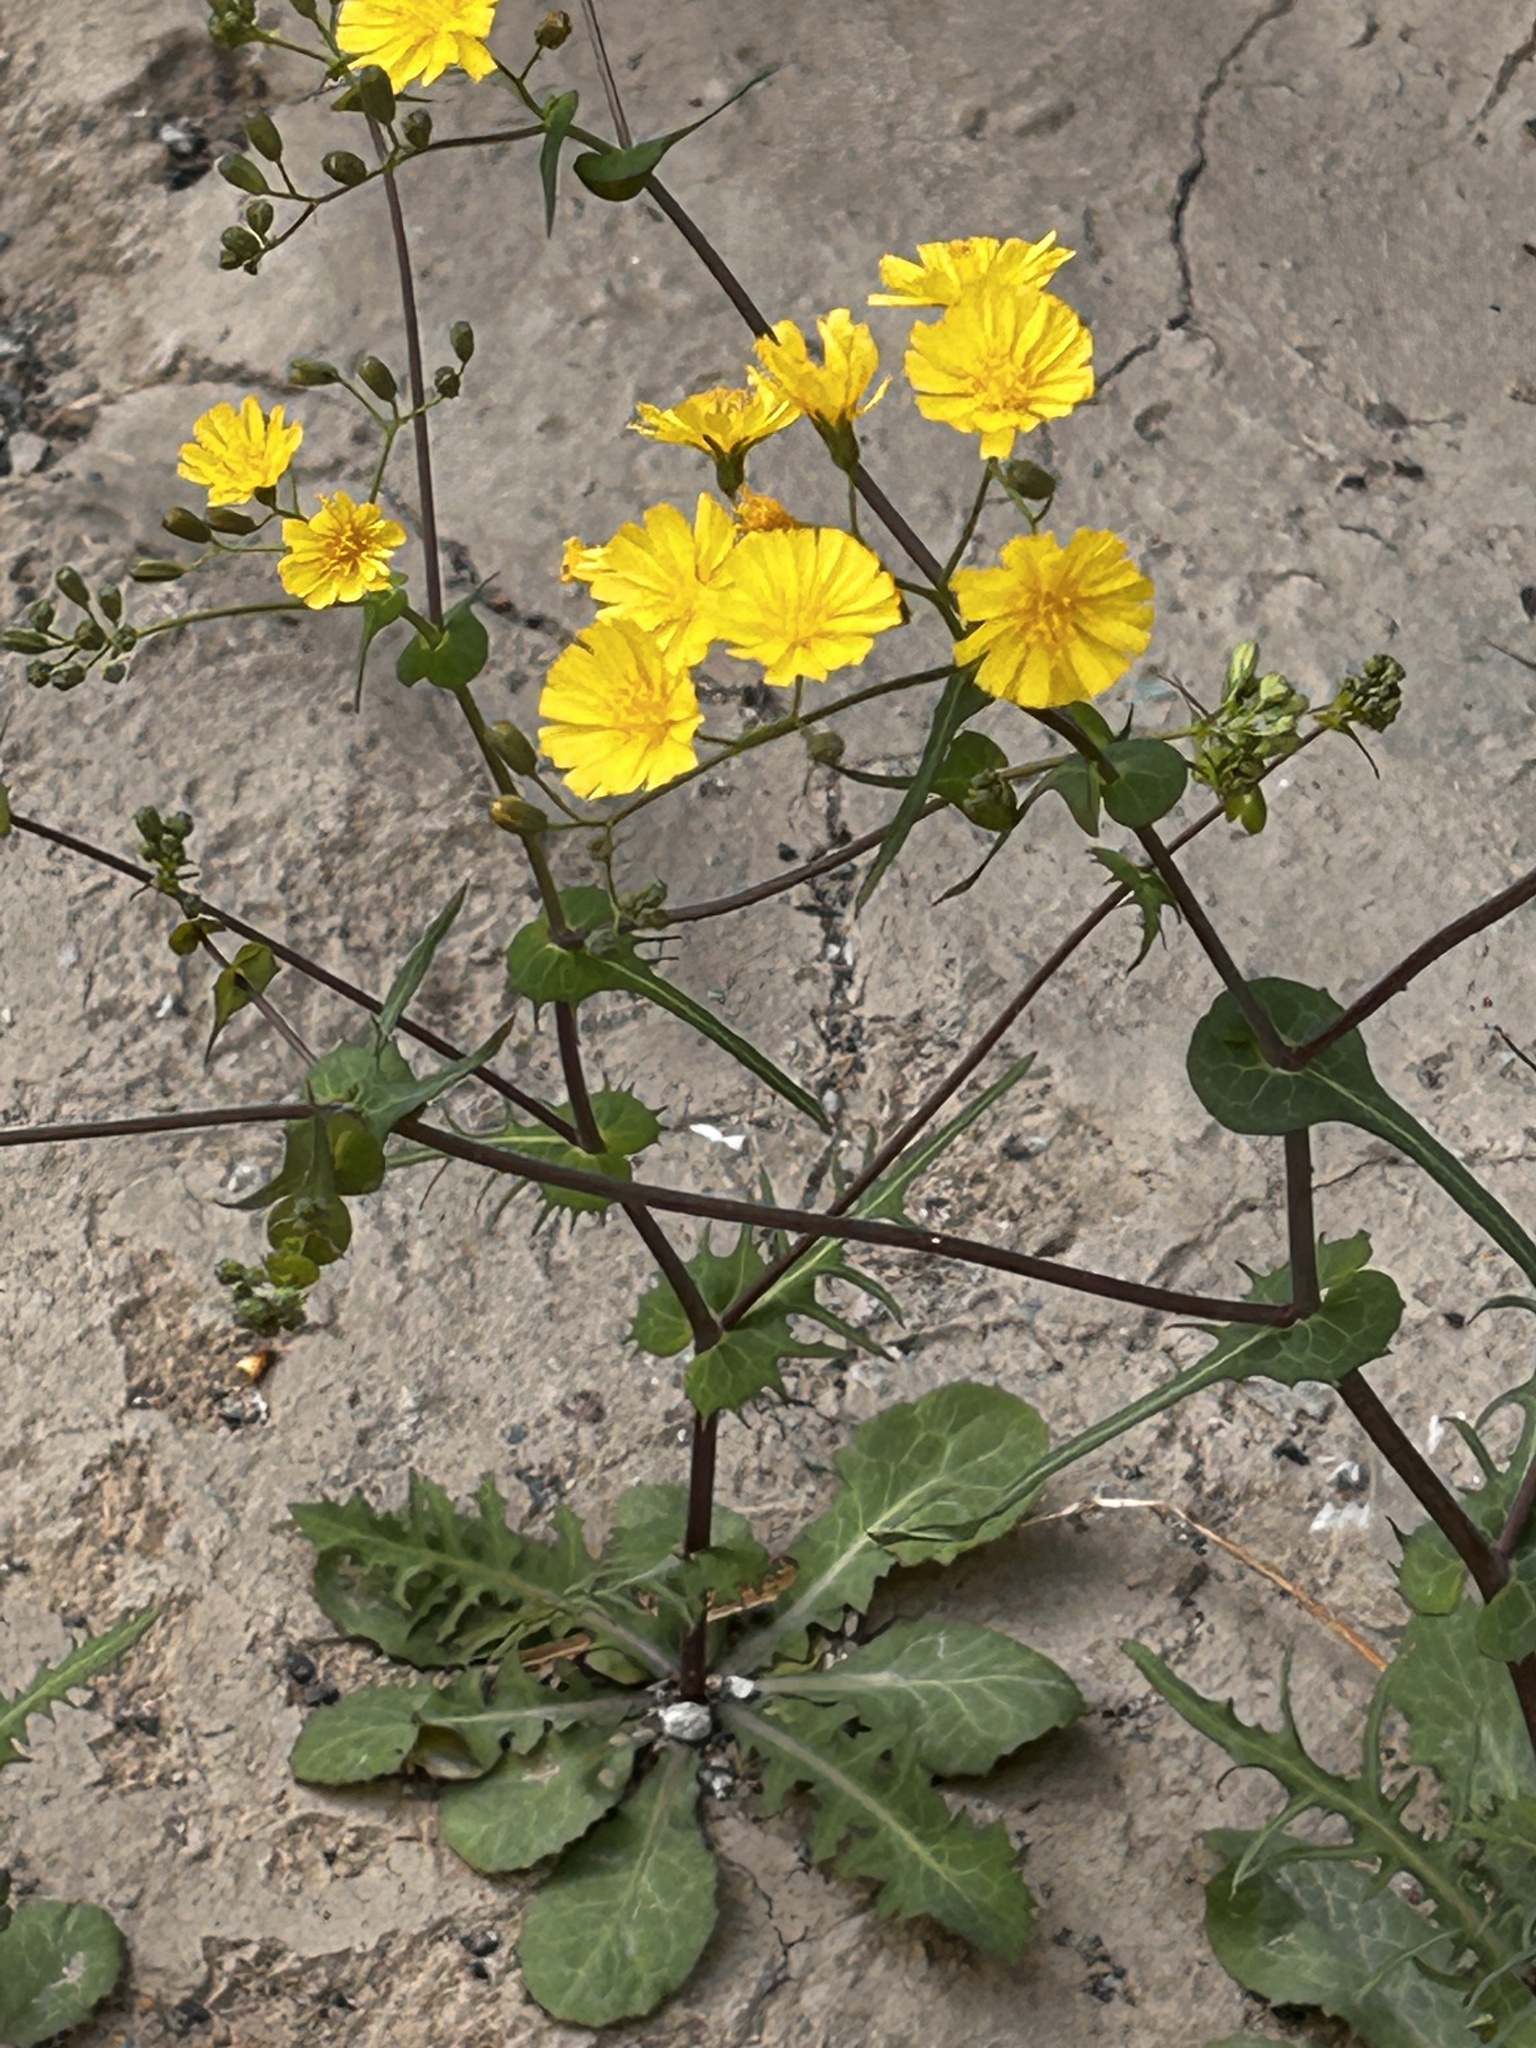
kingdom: Plantae
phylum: Tracheophyta
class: Magnoliopsida
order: Asterales
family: Asteraceae
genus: Crepidiastrum
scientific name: Crepidiastrum sonchifolium
